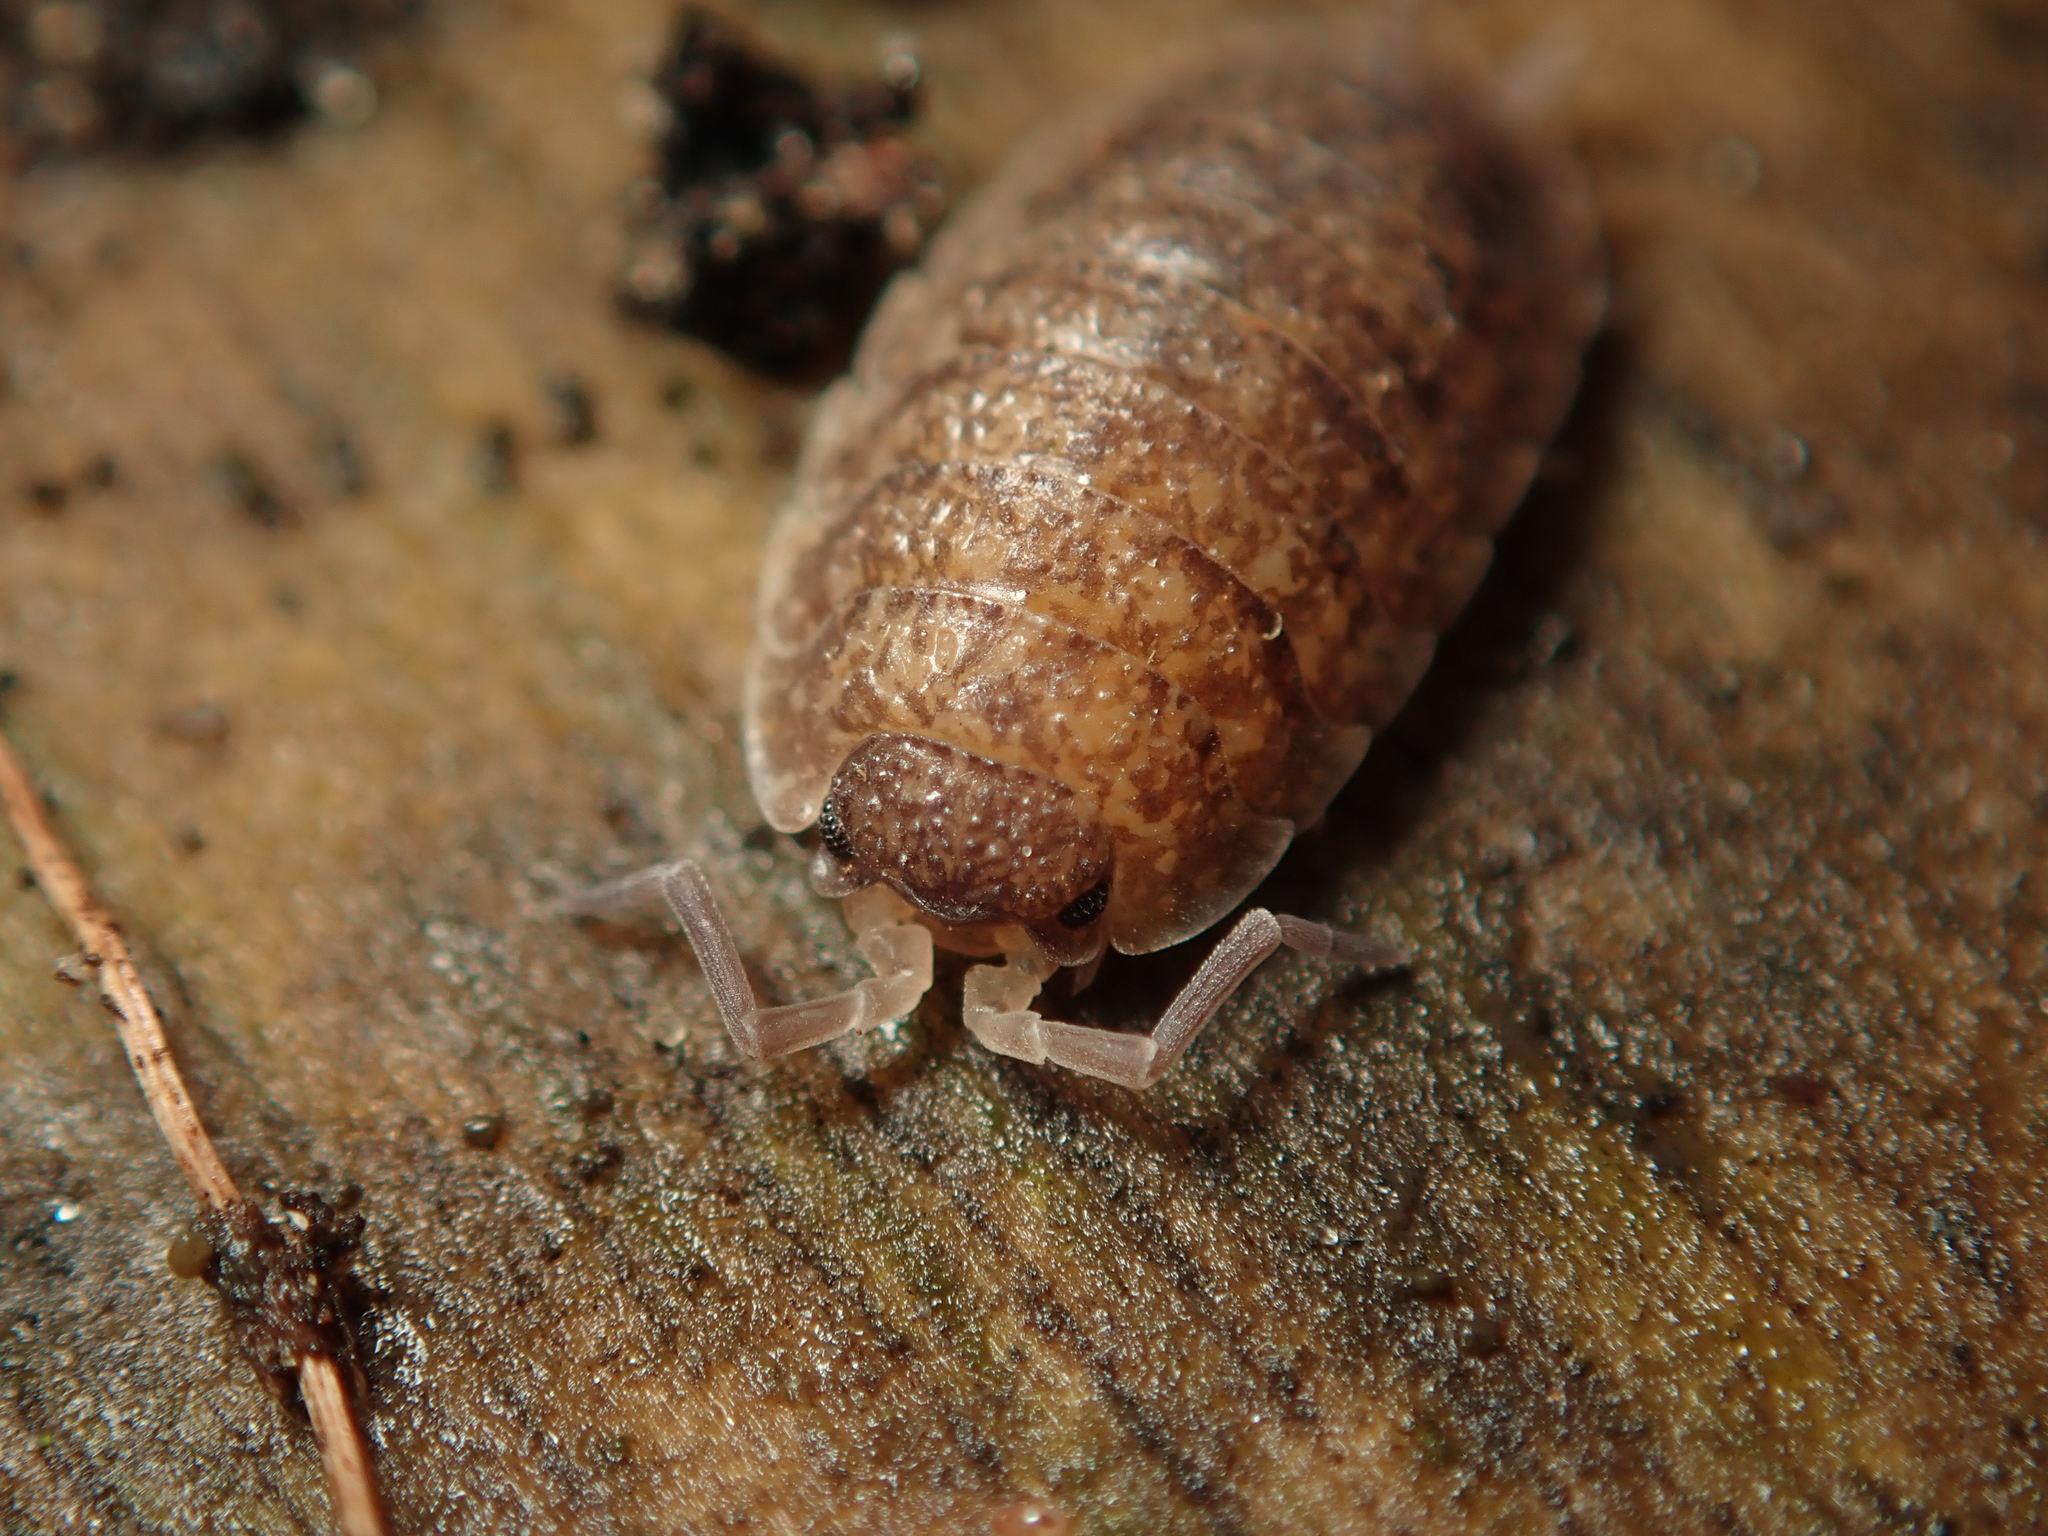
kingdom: Animalia
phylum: Arthropoda
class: Malacostraca
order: Isopoda
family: Porcellionidae
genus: Porcellio
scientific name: Porcellio scaber
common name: Common rough woodlouse
